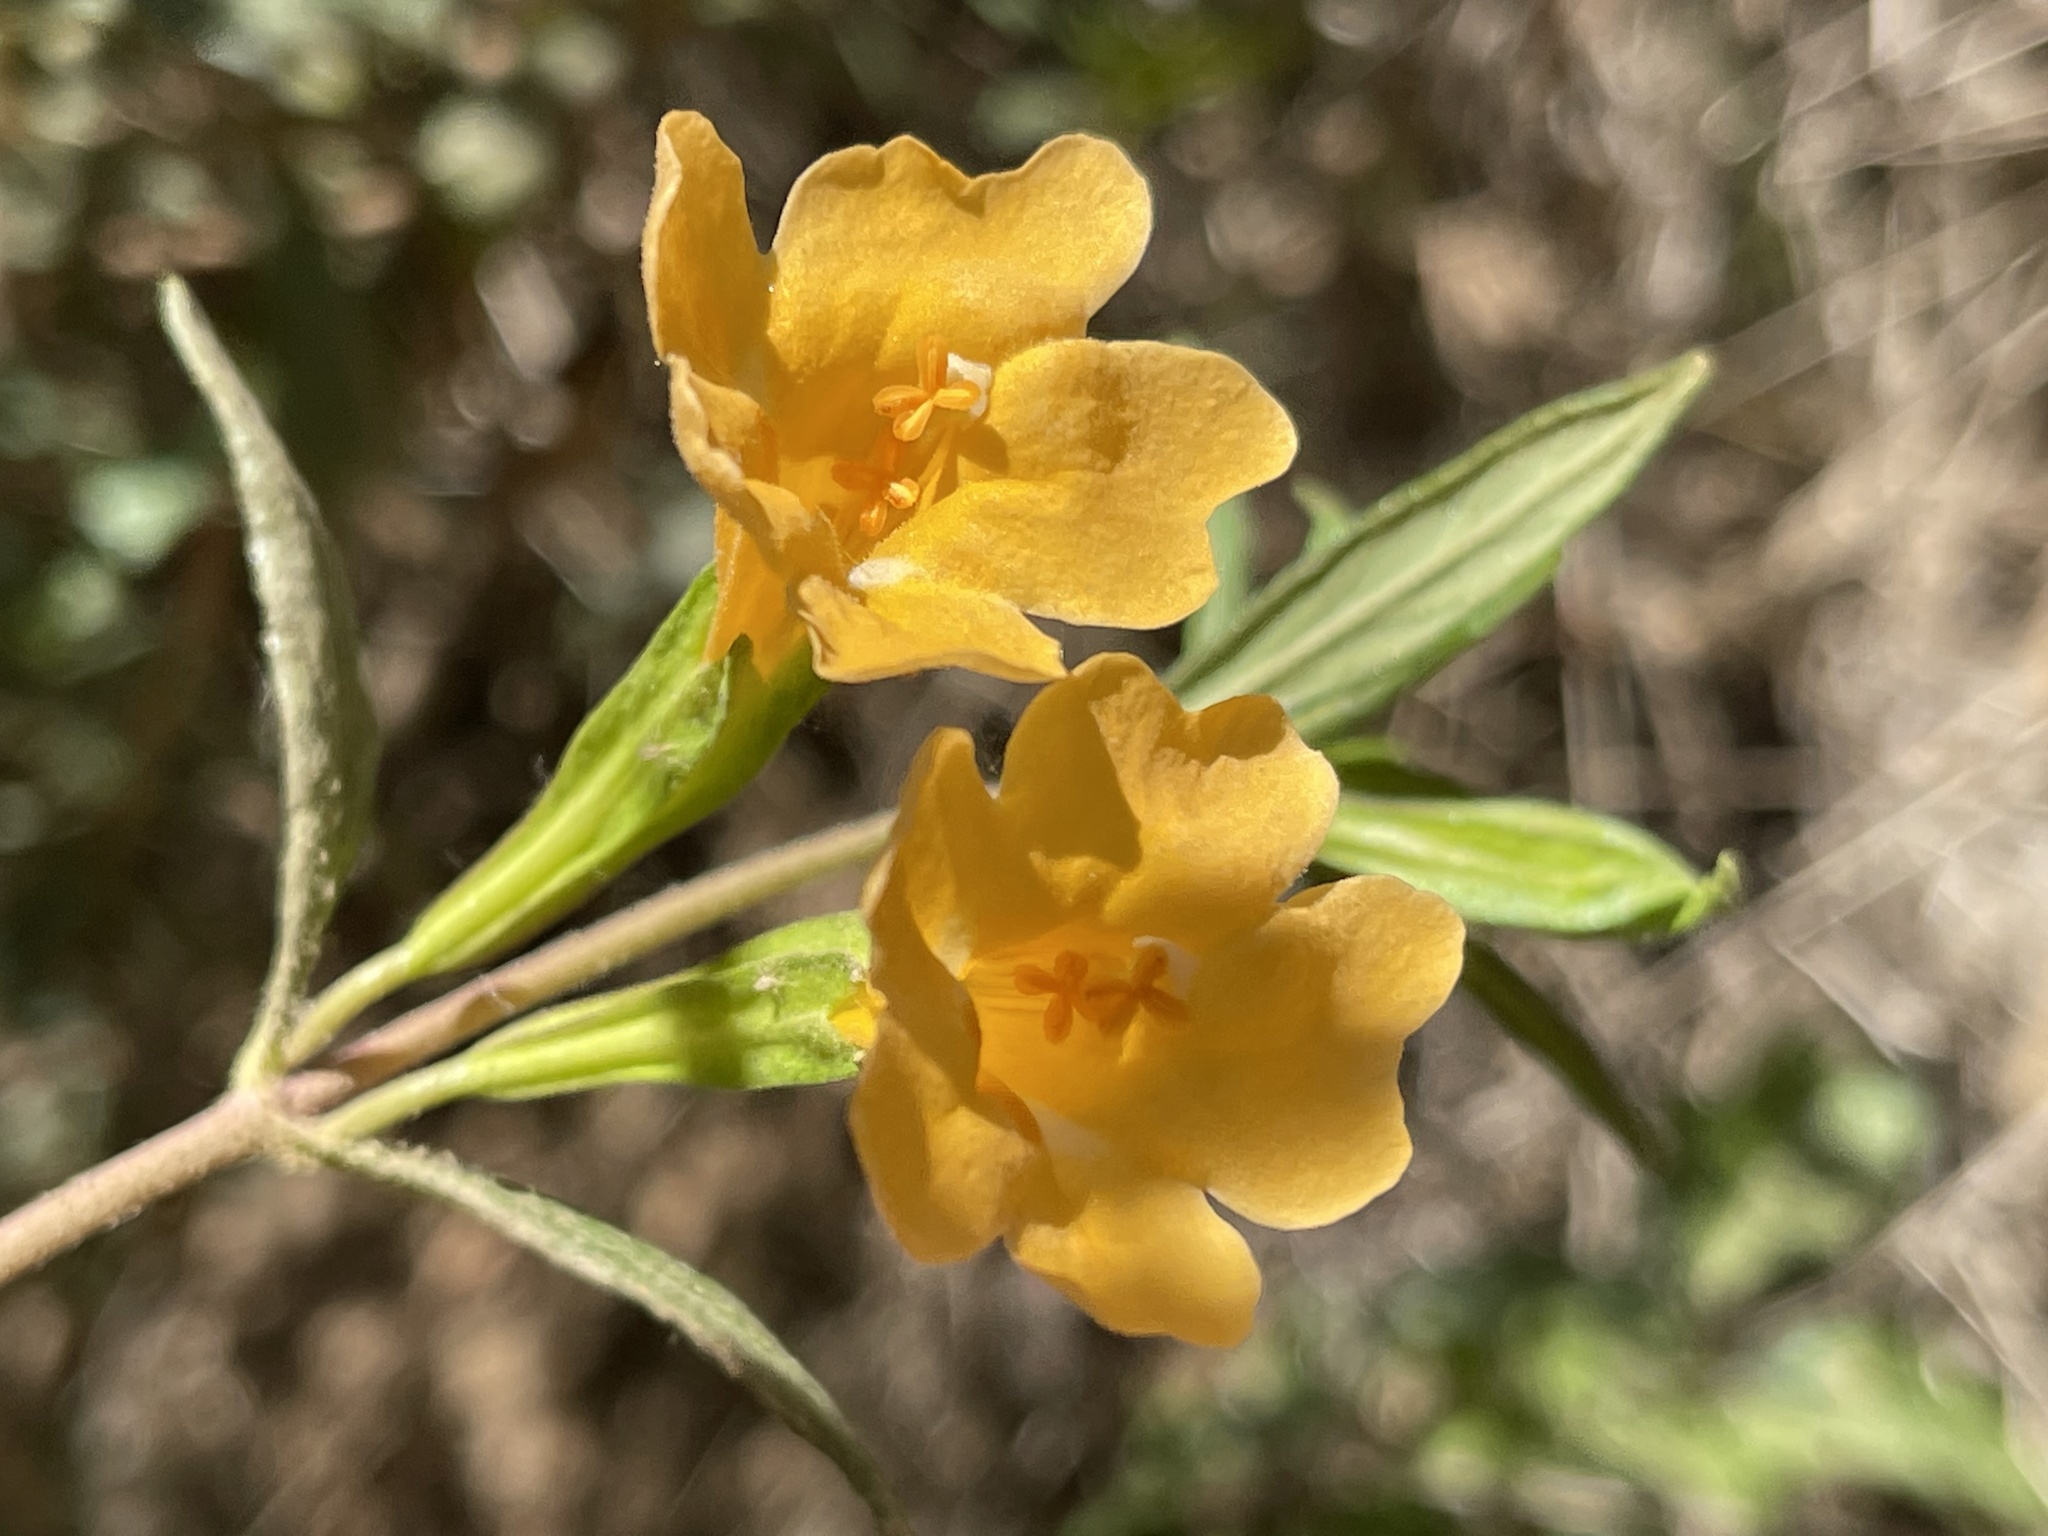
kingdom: Plantae
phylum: Tracheophyta
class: Magnoliopsida
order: Lamiales
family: Phrymaceae
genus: Diplacus
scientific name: Diplacus aurantiacus
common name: Bush monkey-flower
